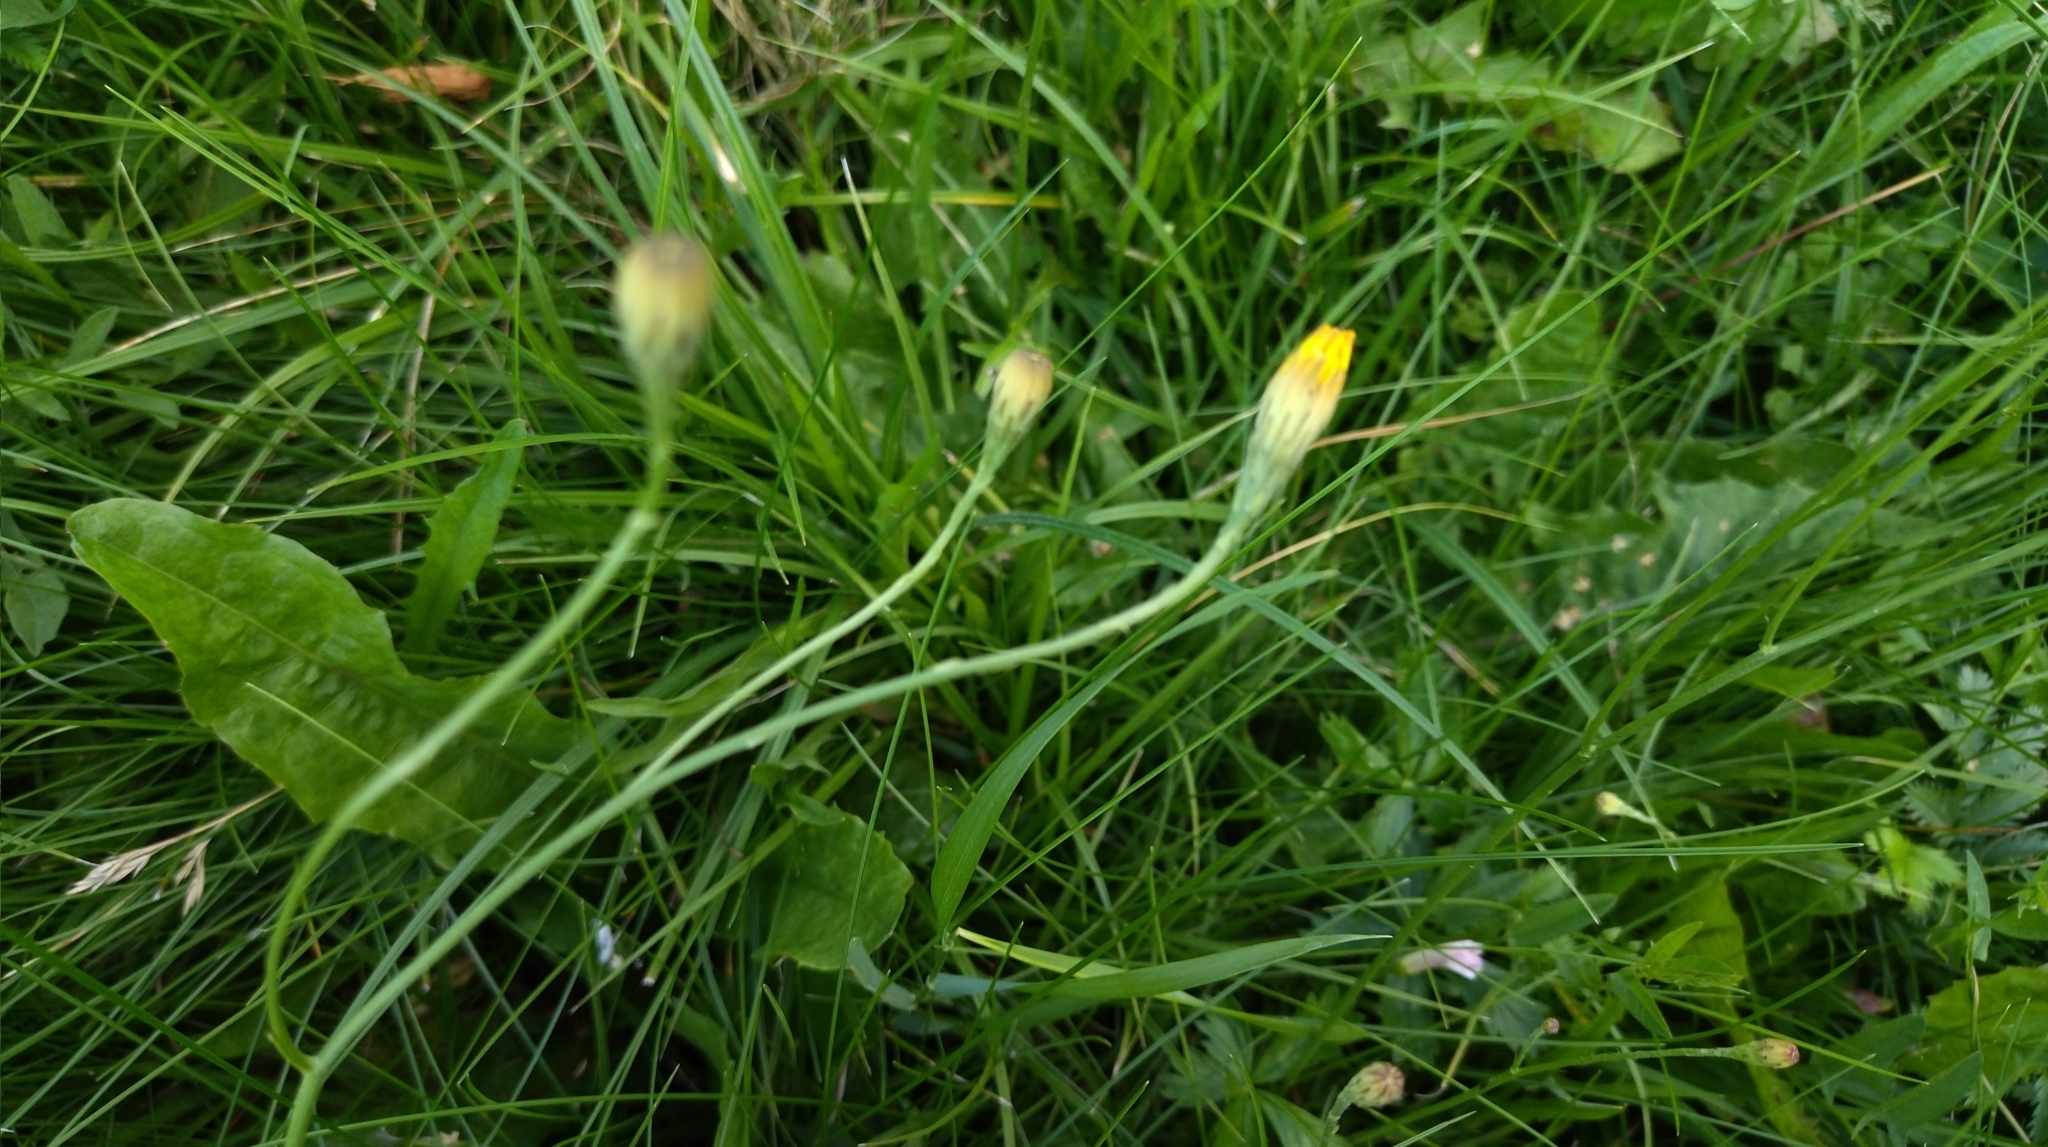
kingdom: Plantae
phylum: Tracheophyta
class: Magnoliopsida
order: Asterales
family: Asteraceae
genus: Scorzoneroides
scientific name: Scorzoneroides autumnalis
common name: Autumn hawkbit
